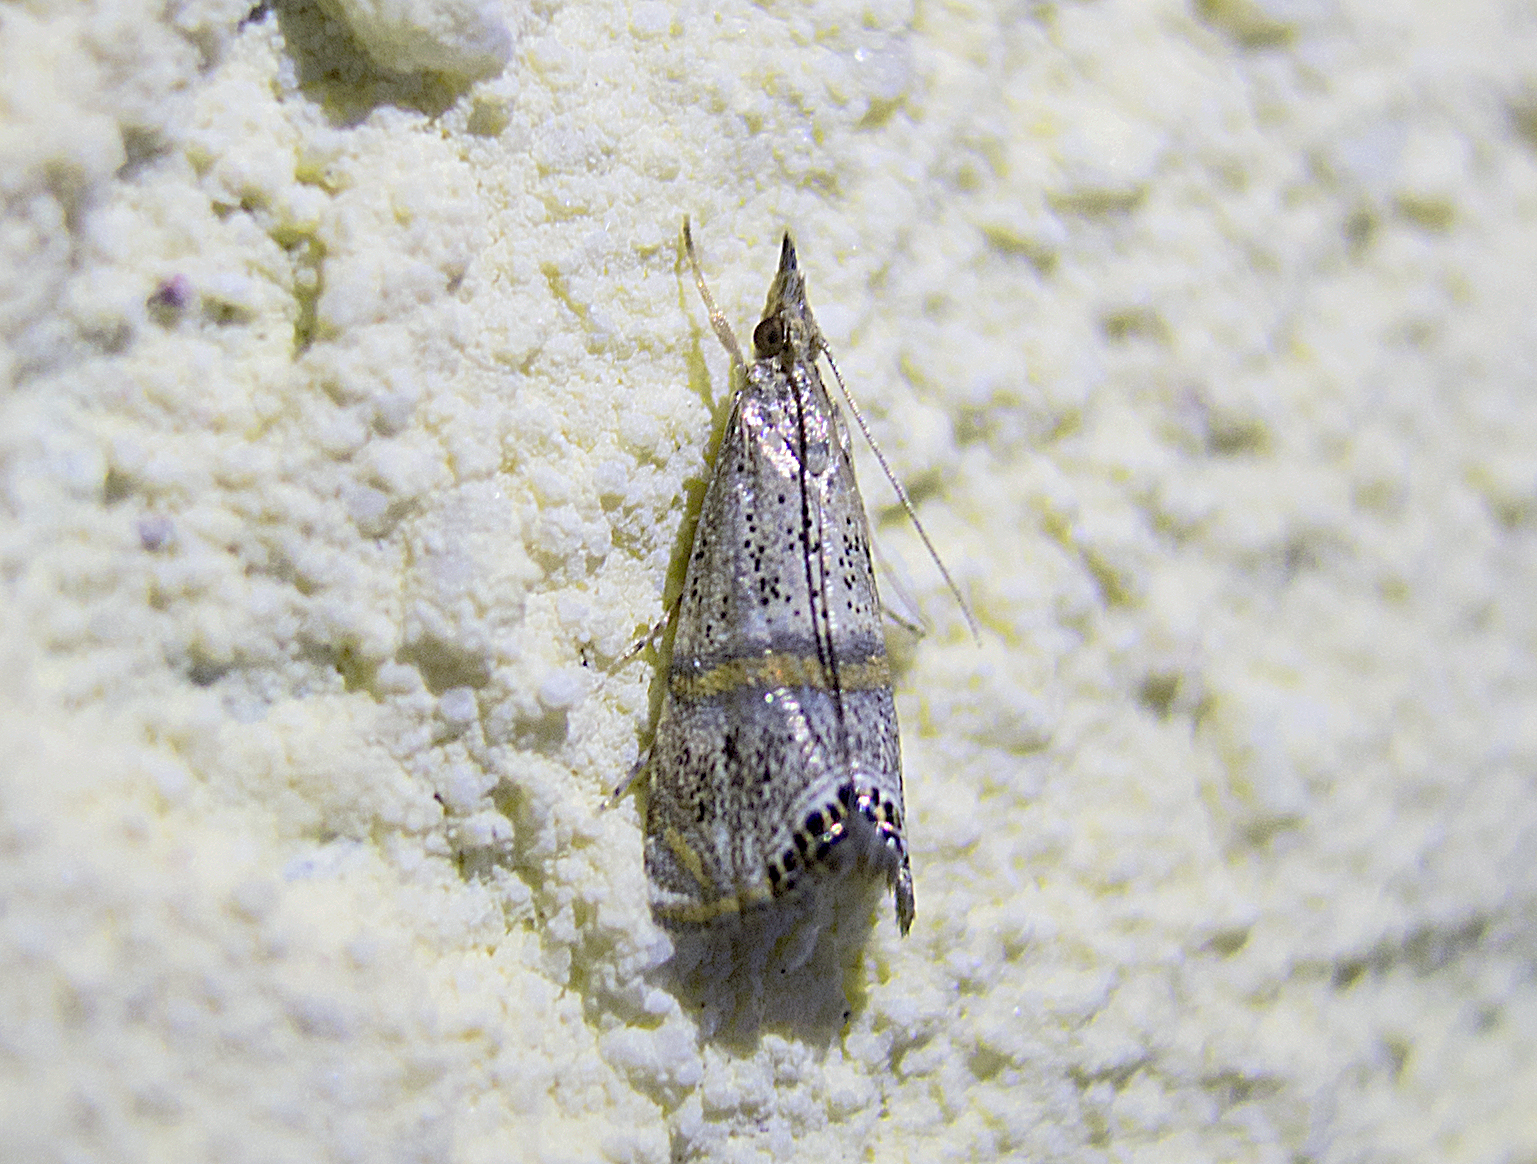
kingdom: Animalia
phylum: Arthropoda
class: Insecta
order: Lepidoptera
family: Crambidae
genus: Euchromius
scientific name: Euchromius superbella
